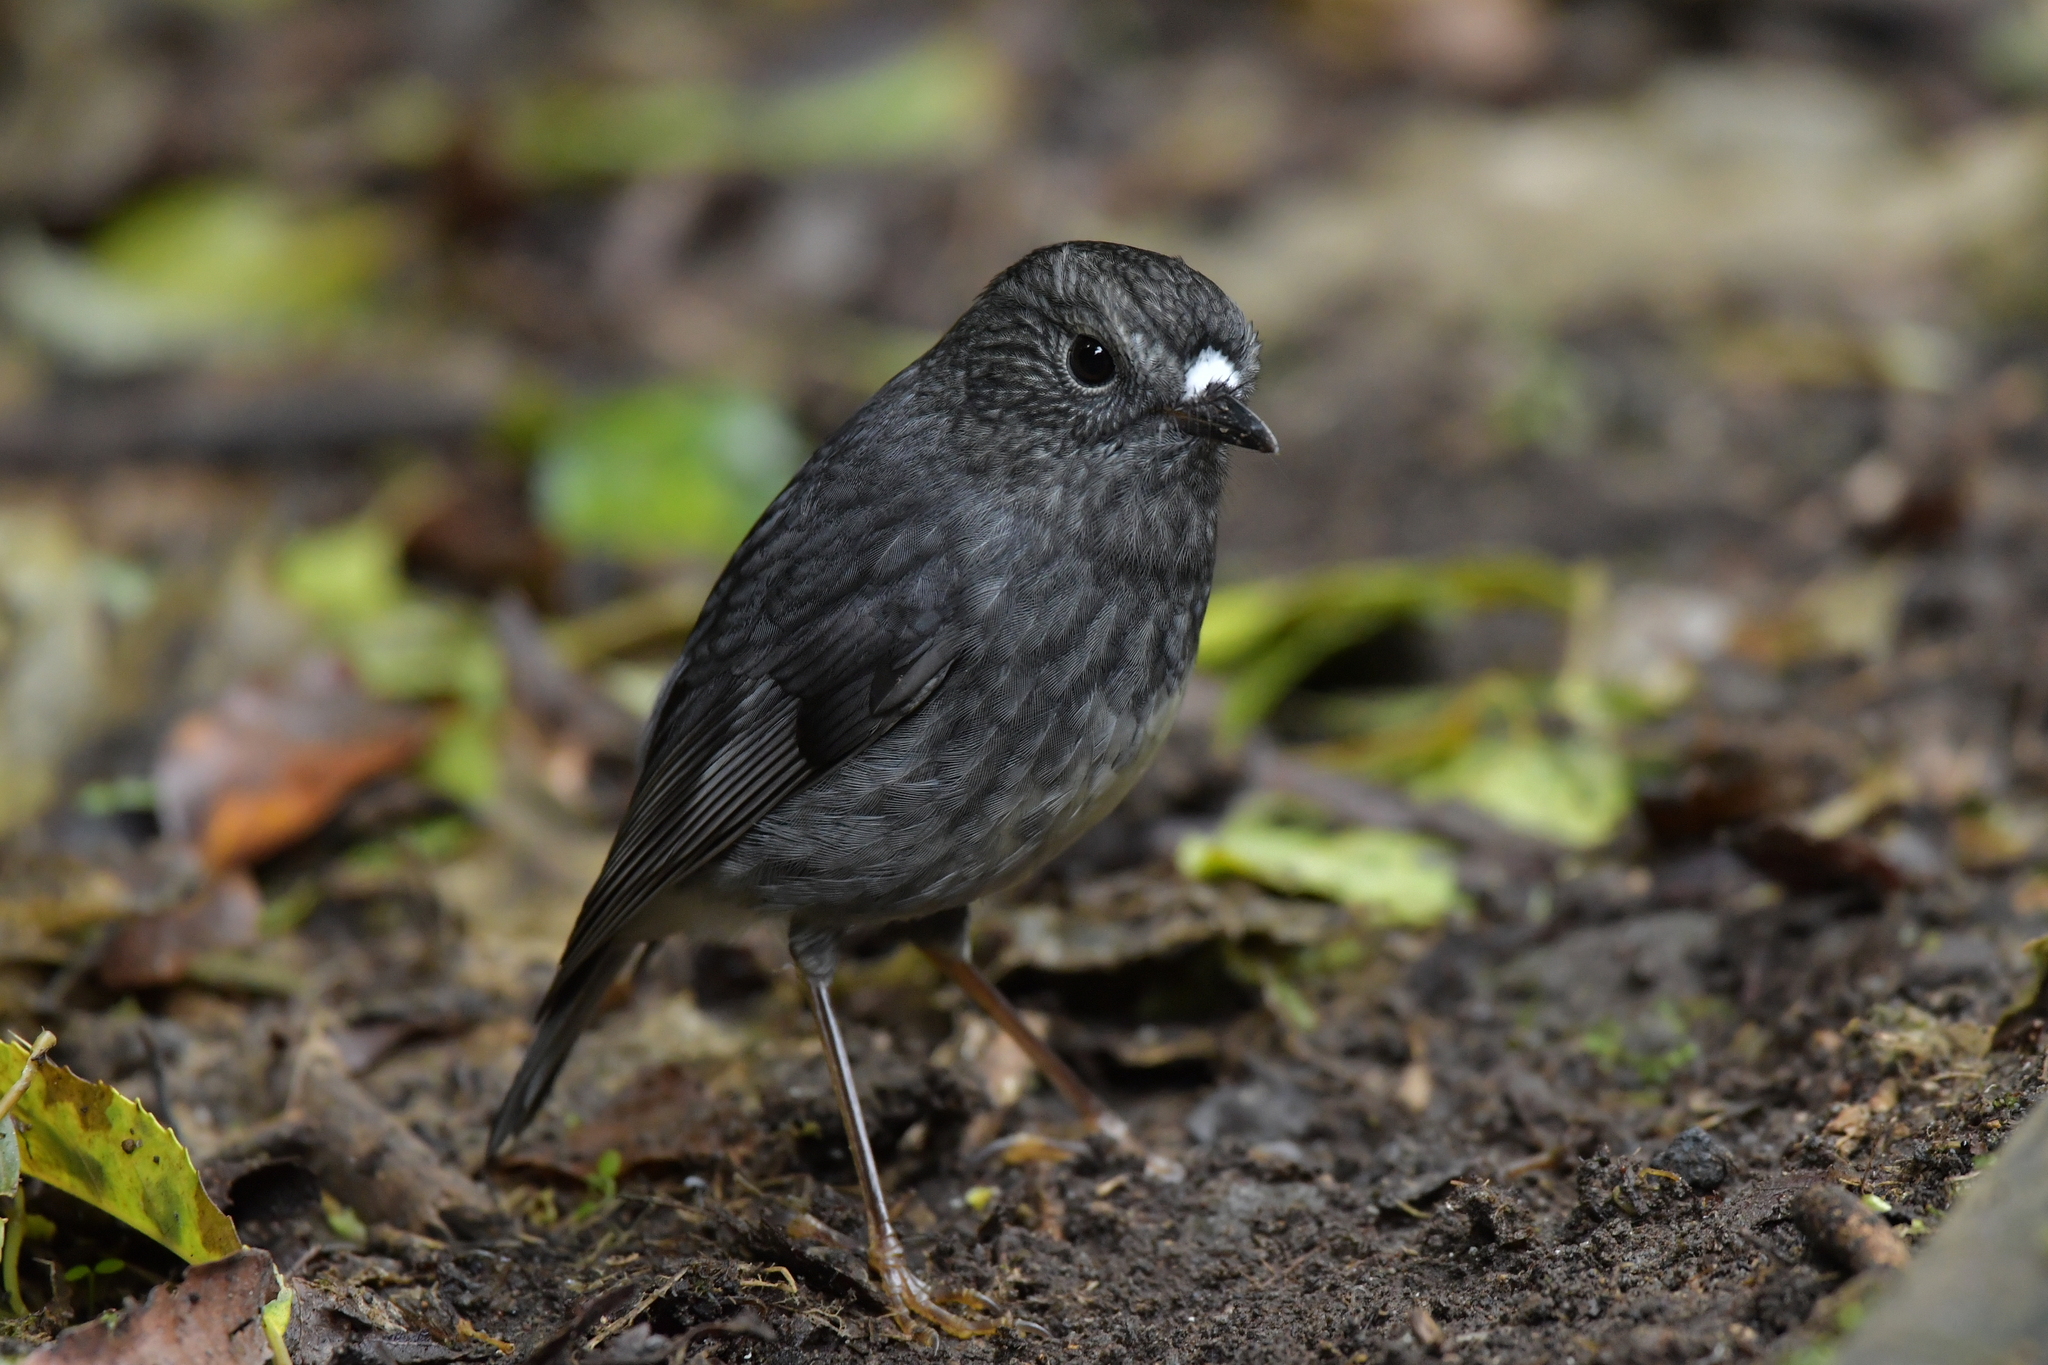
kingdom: Animalia
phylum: Chordata
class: Aves
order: Passeriformes
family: Petroicidae
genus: Petroica
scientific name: Petroica australis
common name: New zealand robin
